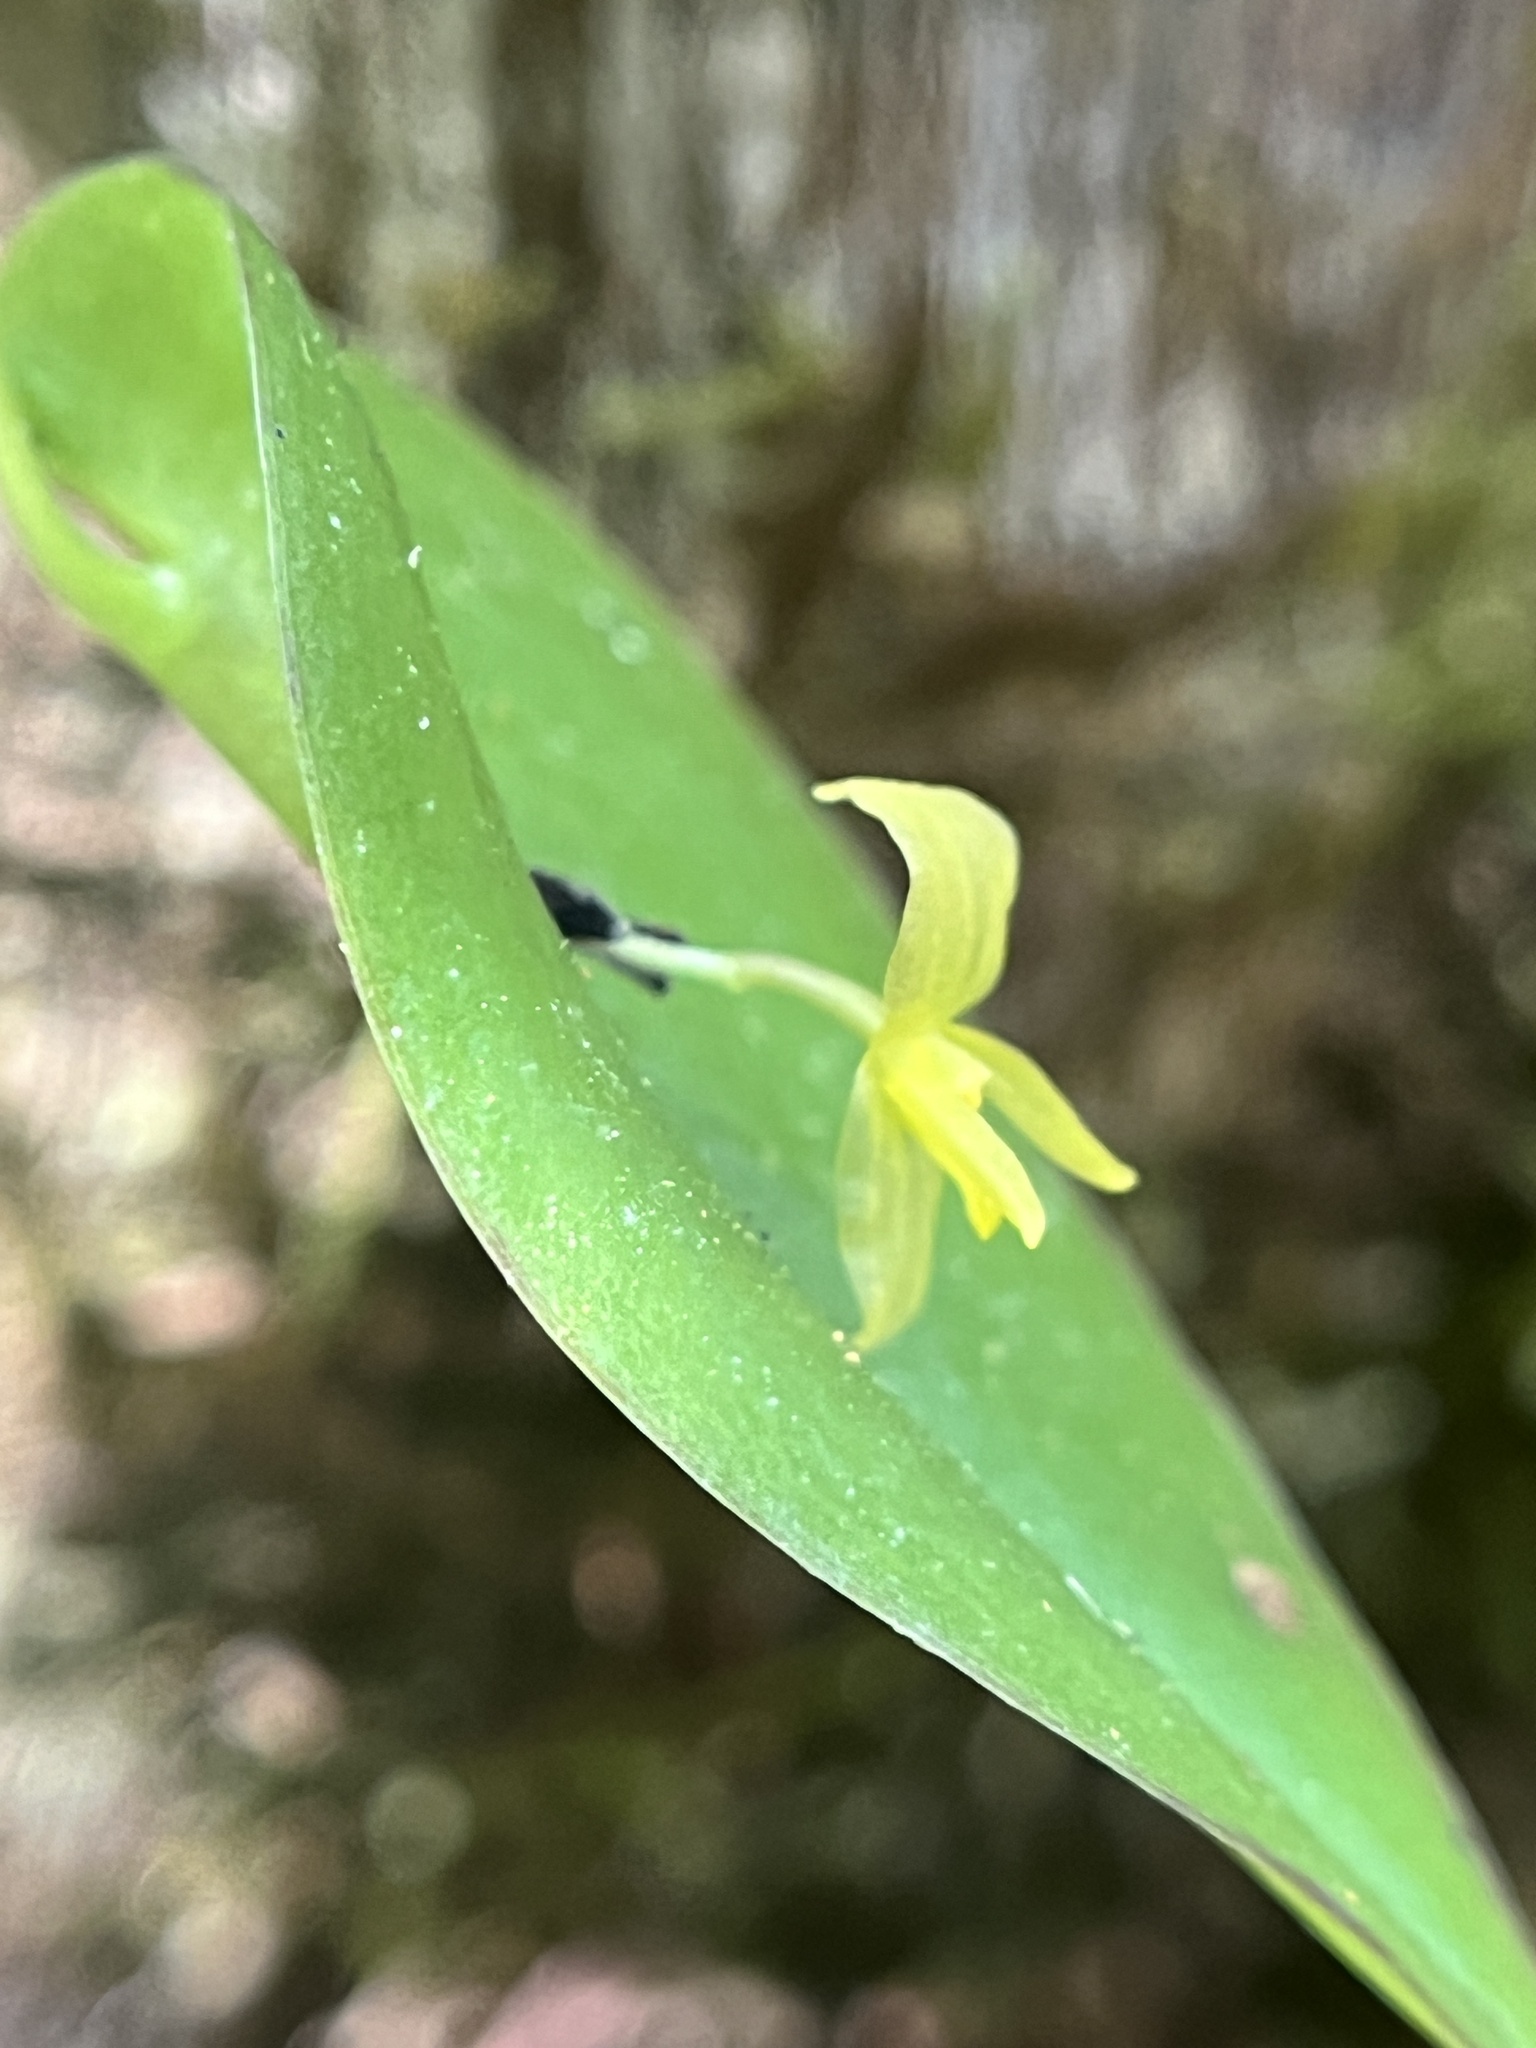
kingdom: Plantae
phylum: Tracheophyta
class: Liliopsida
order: Asparagales
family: Orchidaceae
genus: Pleurothallis
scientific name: Pleurothallis baudoensis
